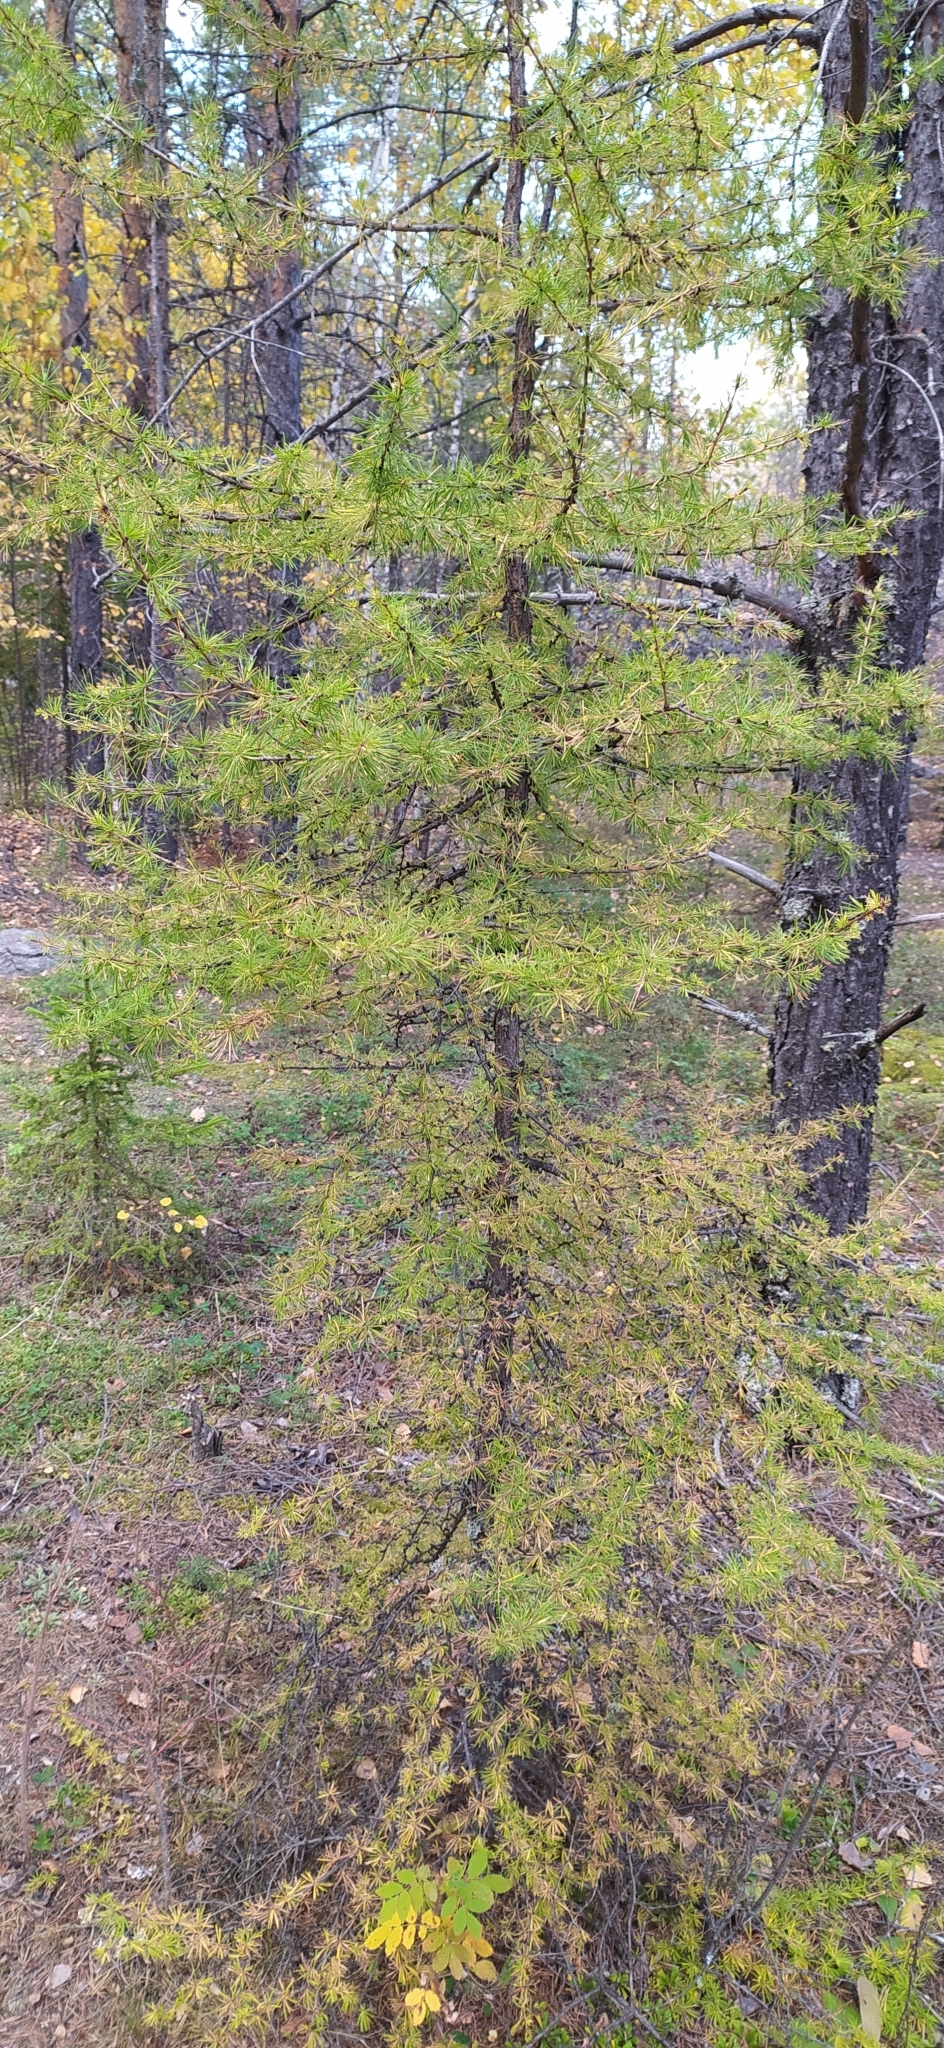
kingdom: Plantae
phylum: Tracheophyta
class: Pinopsida
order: Pinales
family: Pinaceae
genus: Larix
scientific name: Larix sibirica
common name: Siberian larch
